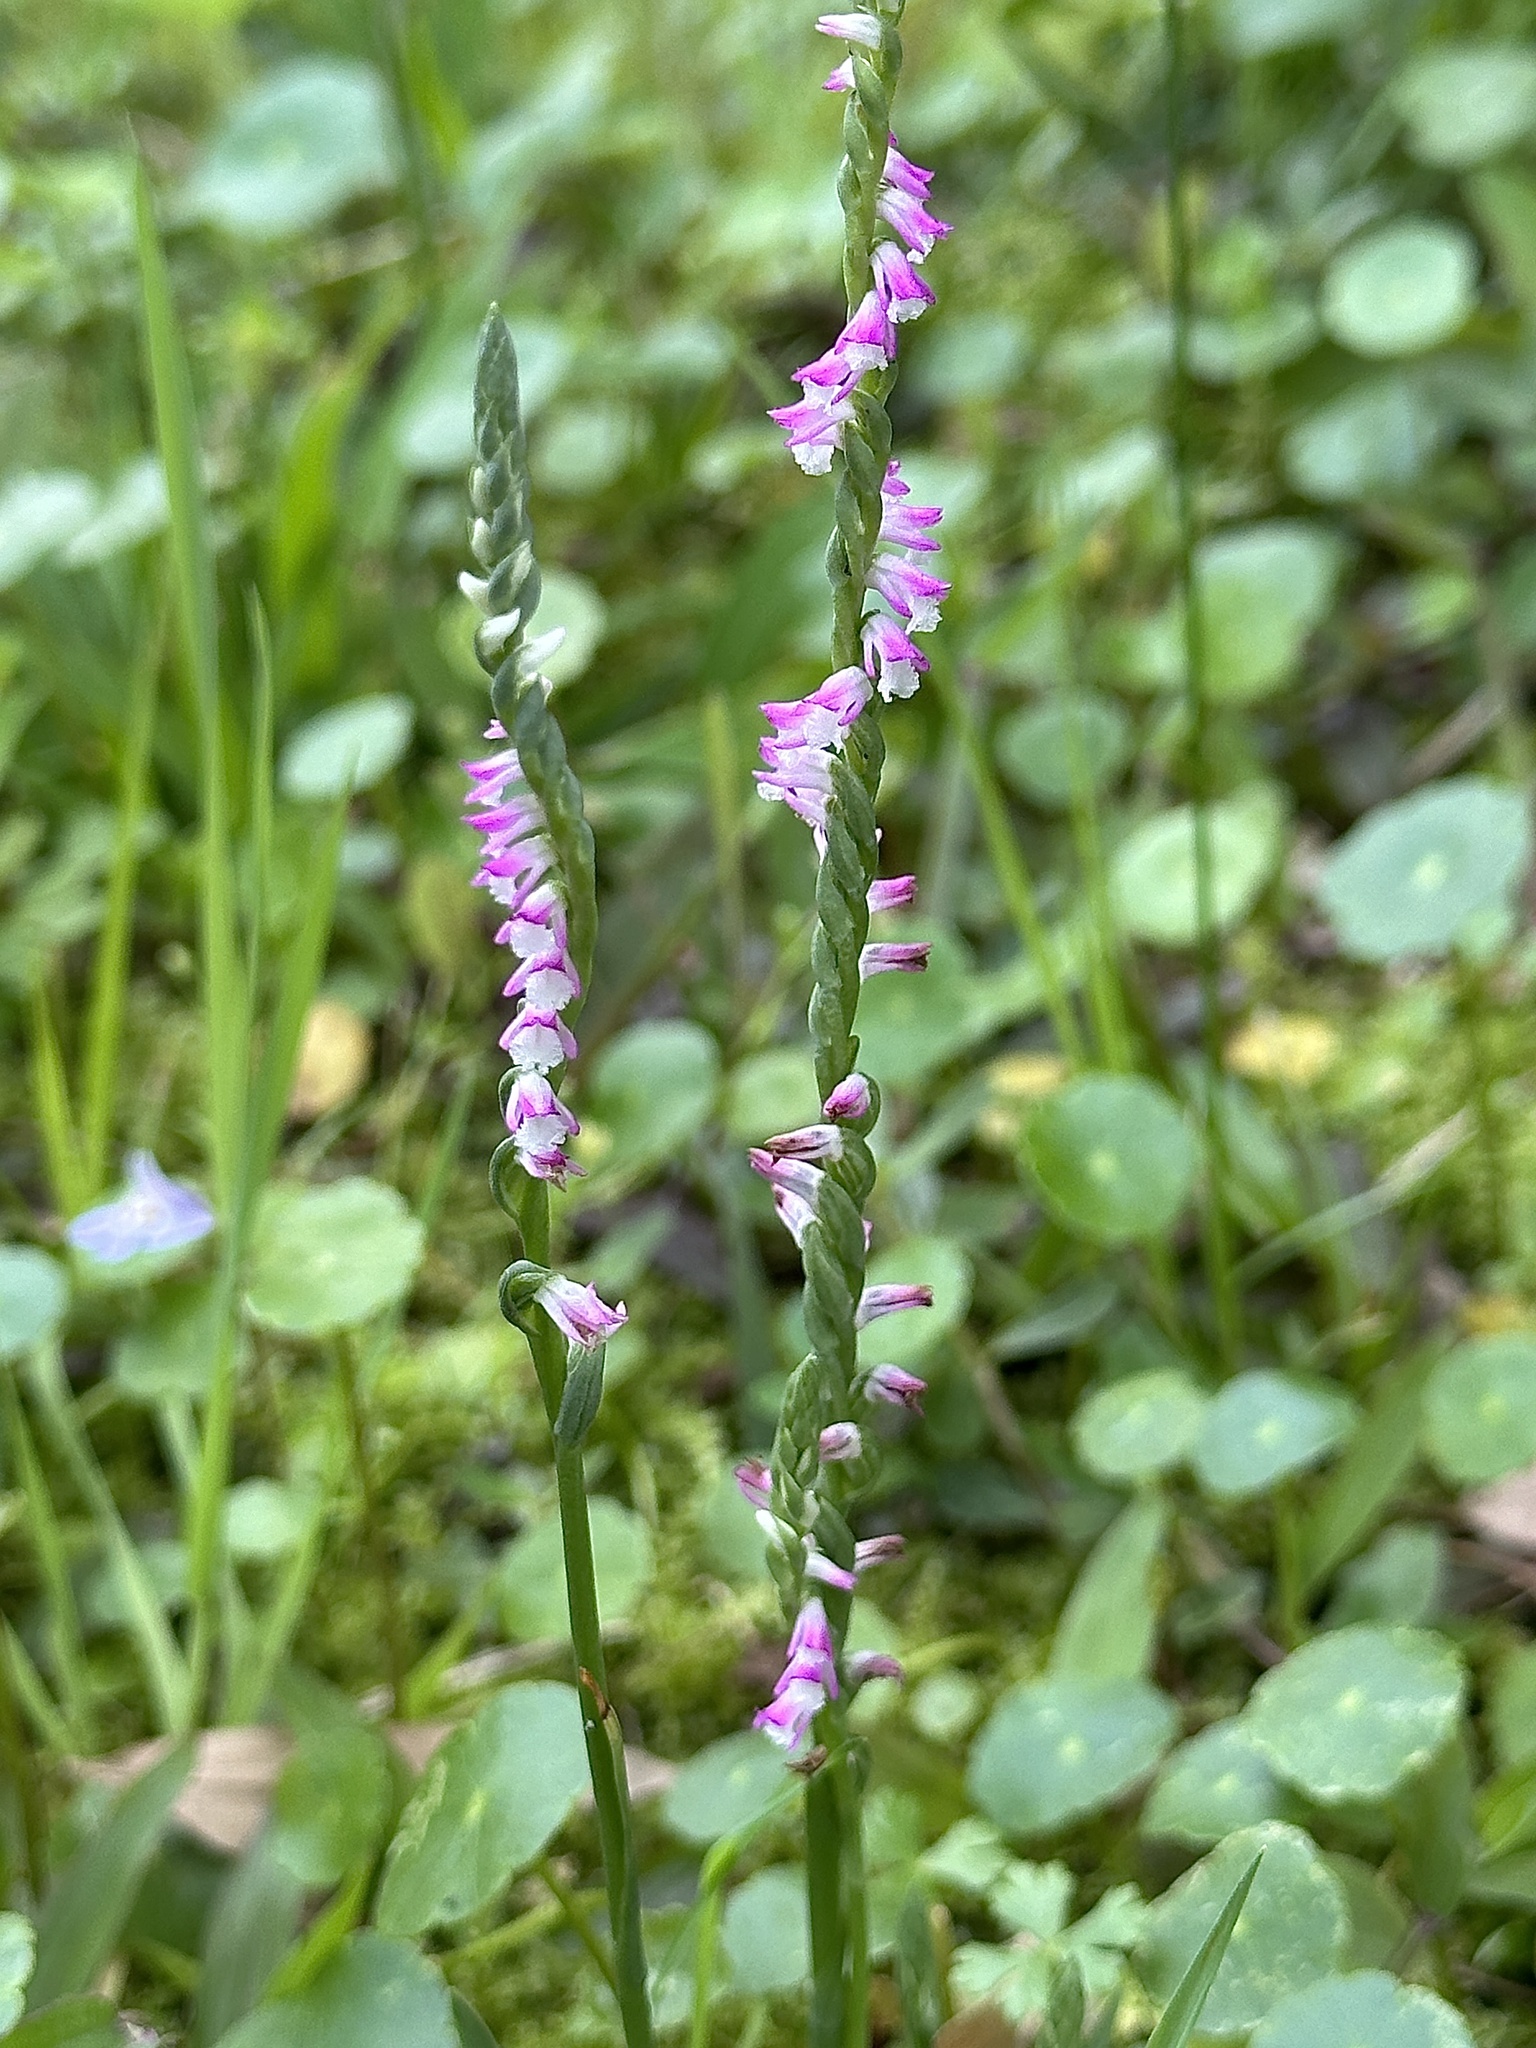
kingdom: Plantae
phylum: Tracheophyta
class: Liliopsida
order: Asparagales
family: Orchidaceae
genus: Spiranthes
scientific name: Spiranthes sinensis
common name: Chinese spiranthes
